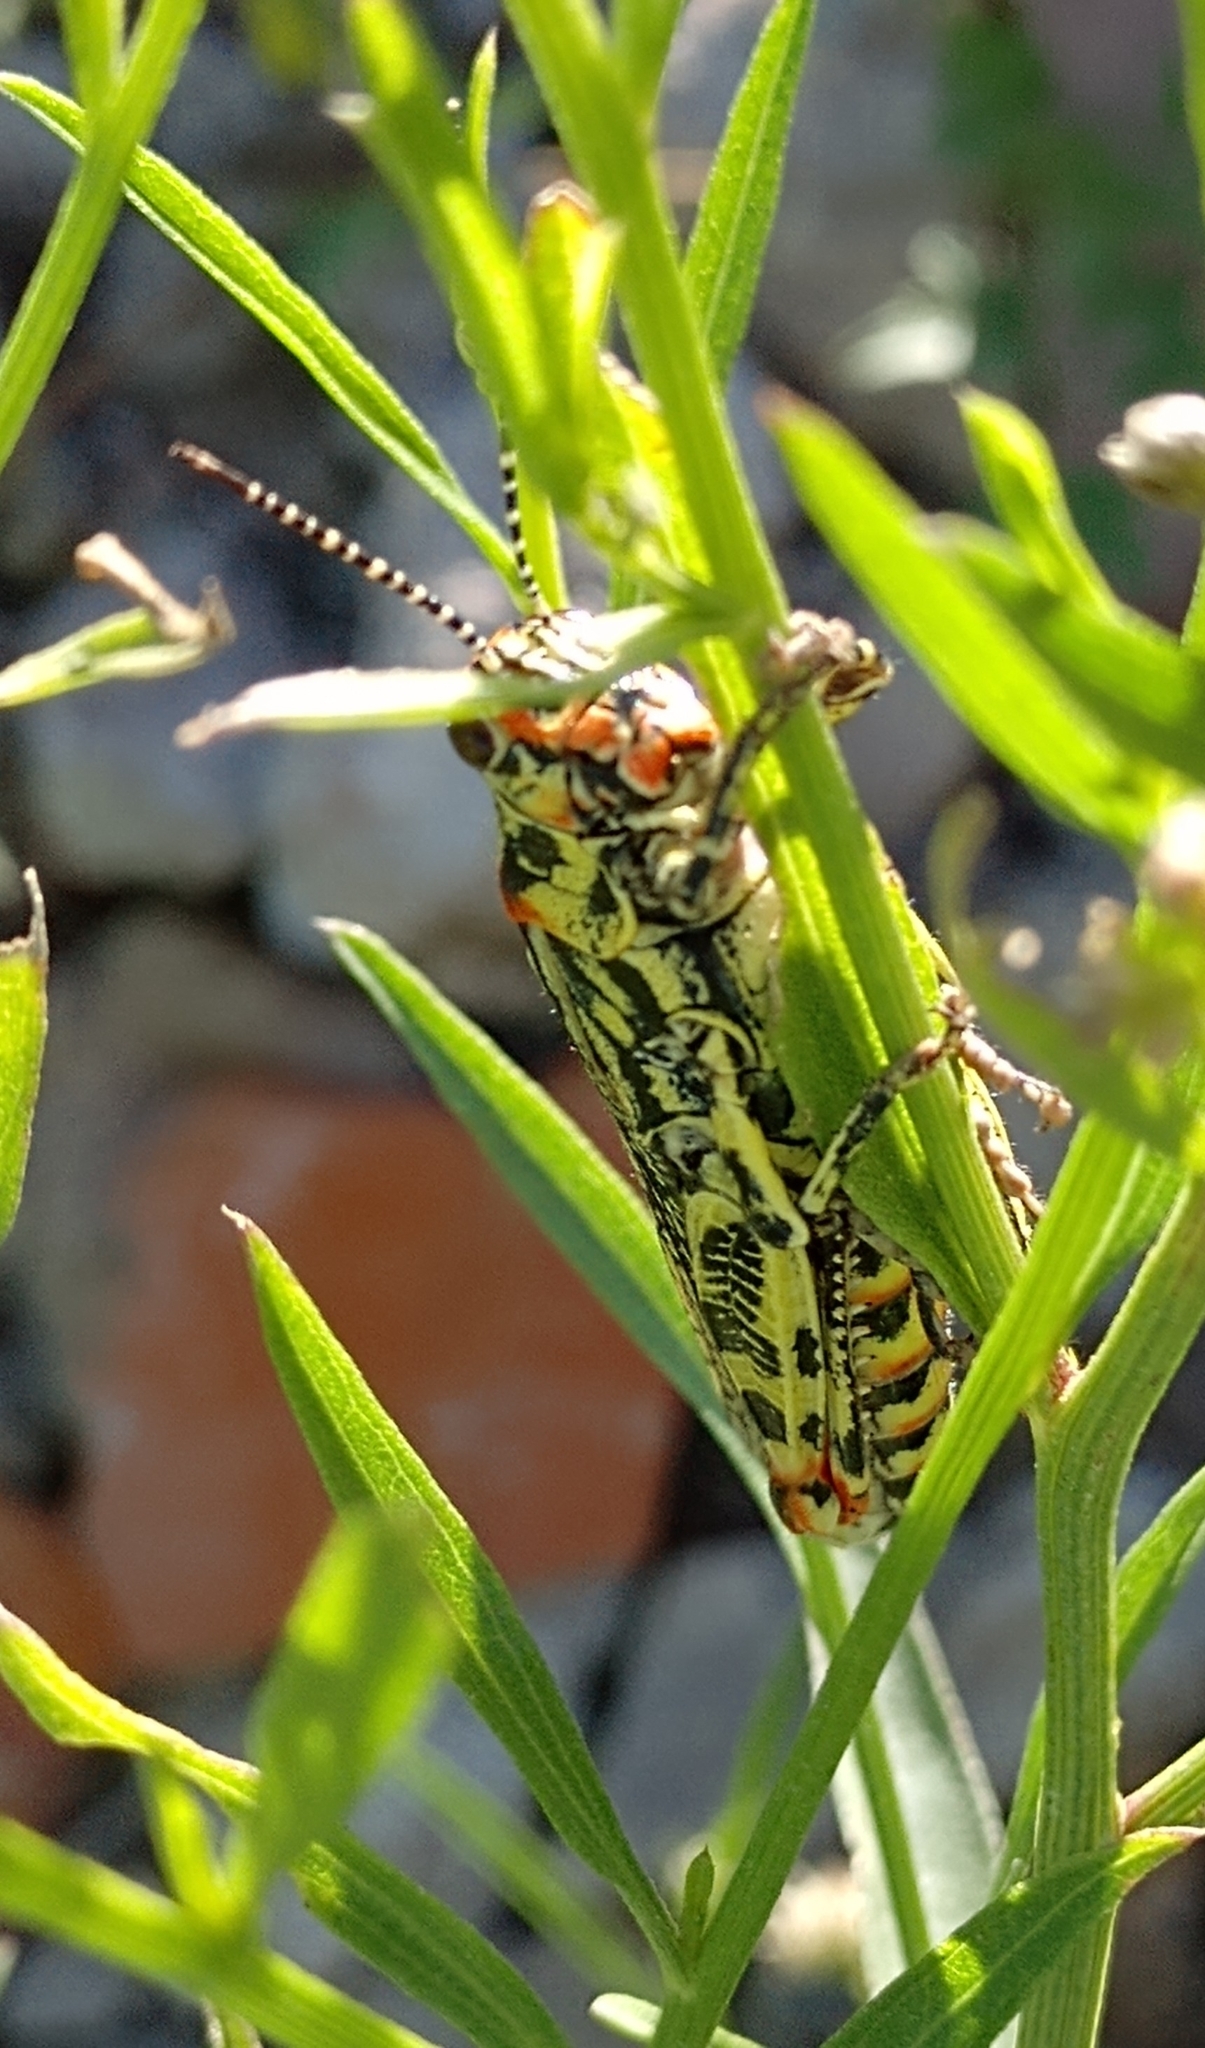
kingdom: Animalia
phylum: Arthropoda
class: Insecta
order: Orthoptera
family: Romaleidae
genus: Diponthus
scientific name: Diponthus puelchus
